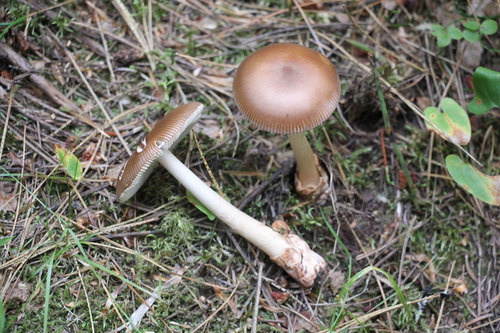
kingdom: Fungi
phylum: Basidiomycota
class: Agaricomycetes
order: Agaricales
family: Amanitaceae
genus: Amanita
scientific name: Amanita fulva
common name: Tawny grisette
